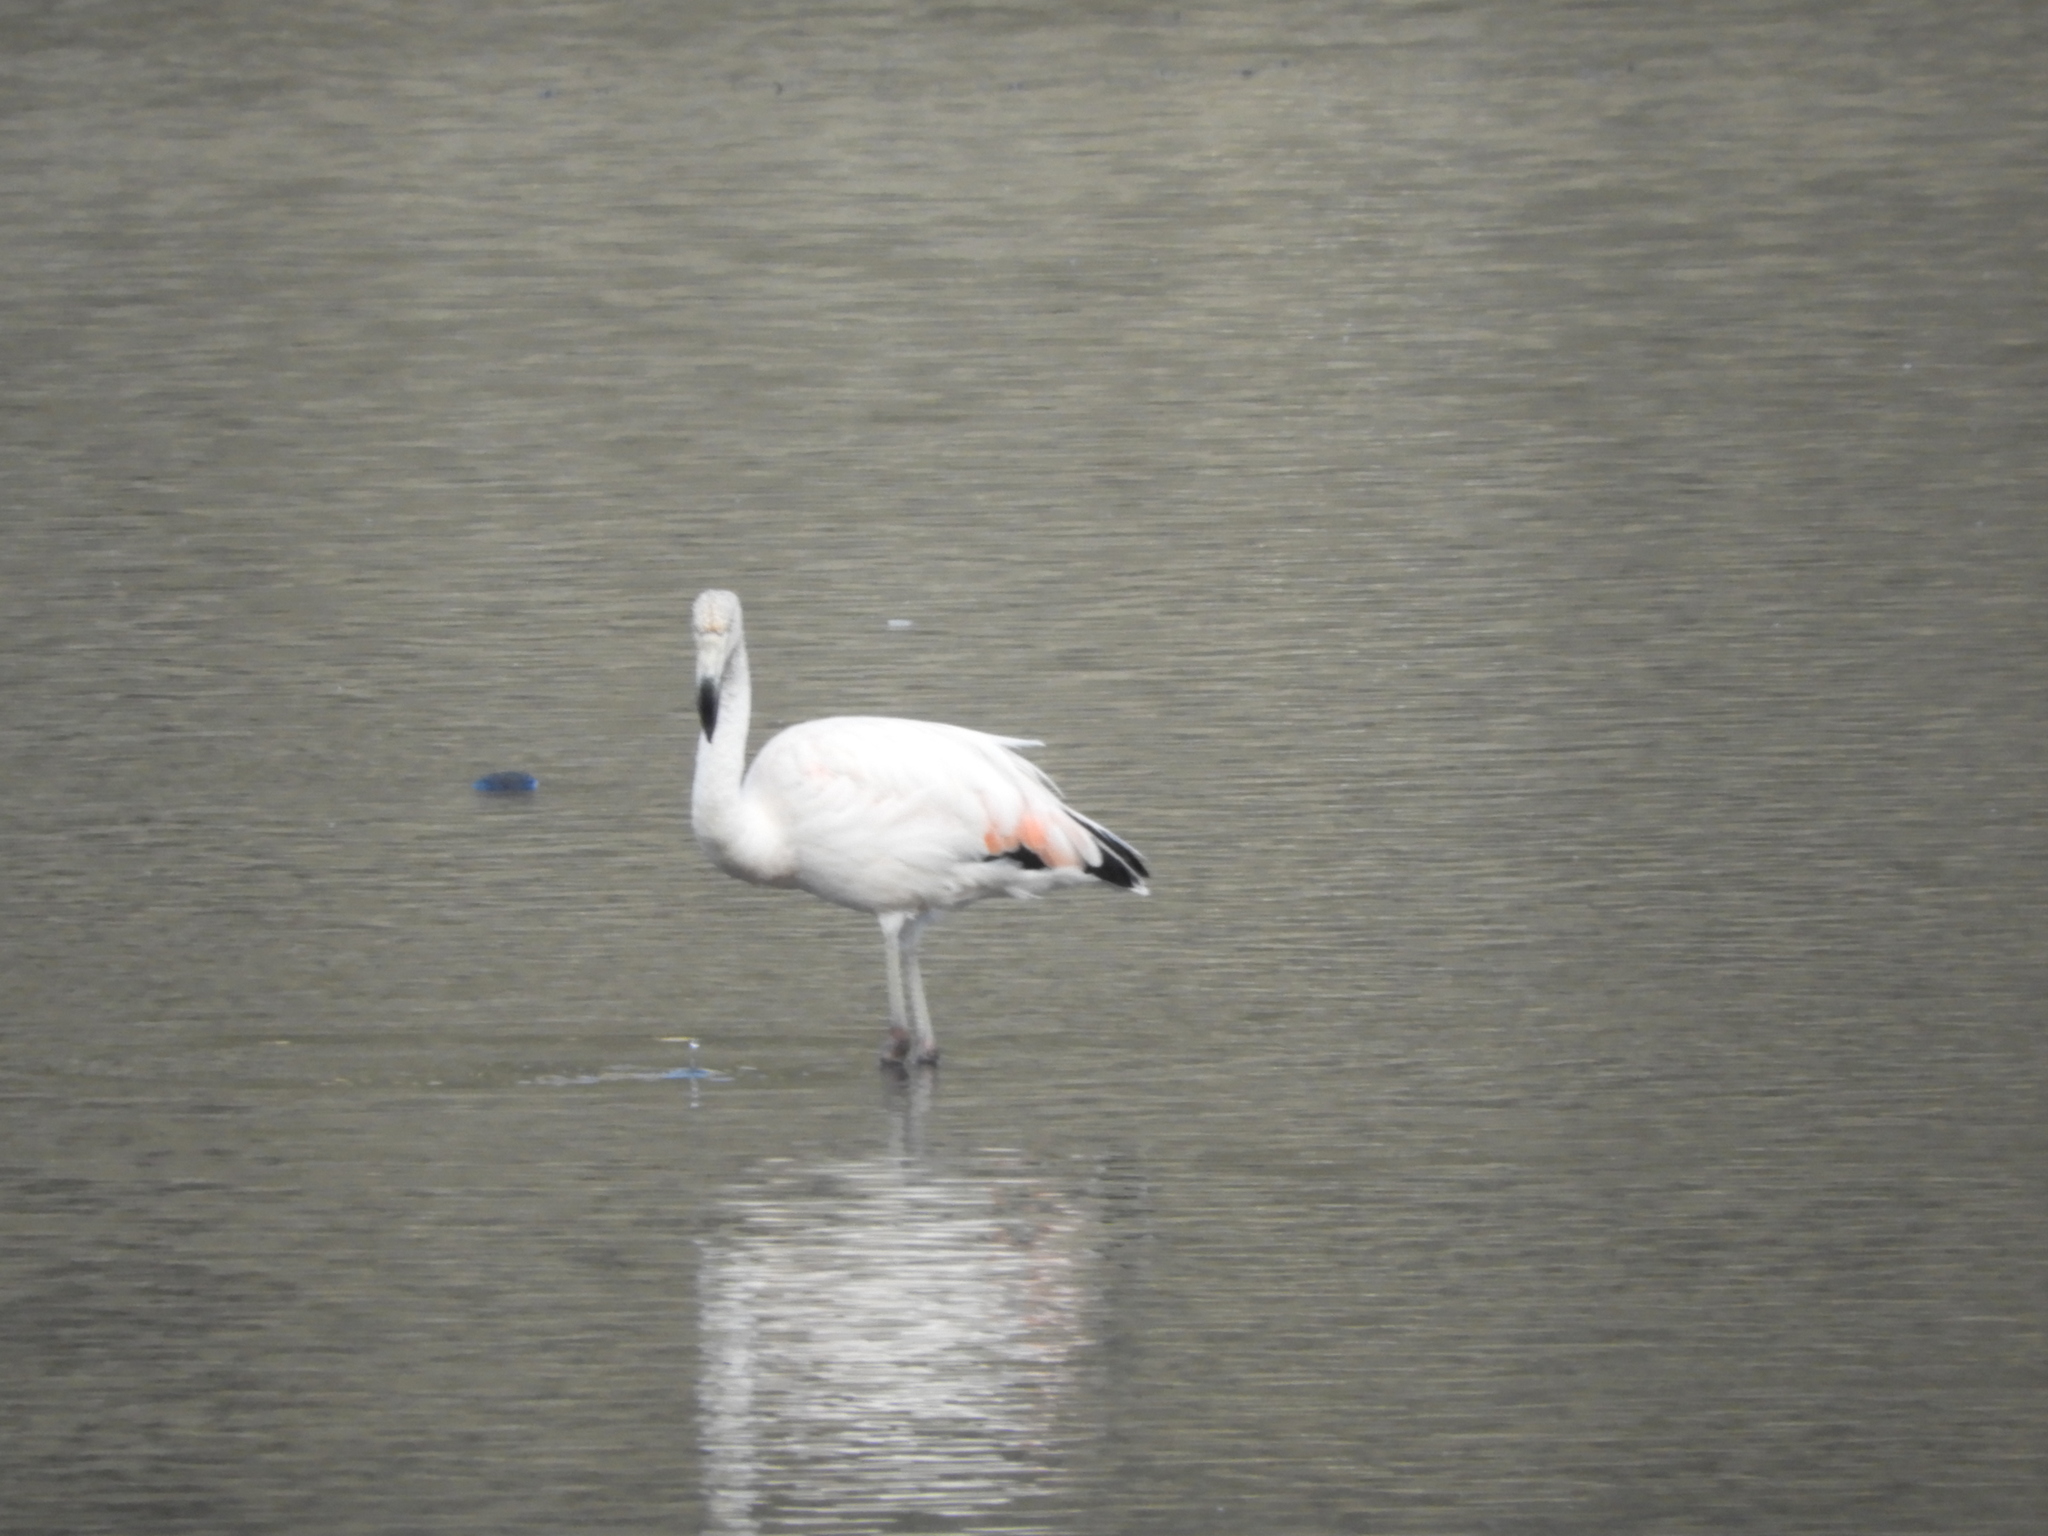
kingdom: Animalia
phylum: Chordata
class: Aves
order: Phoenicopteriformes
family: Phoenicopteridae
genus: Phoenicopterus
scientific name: Phoenicopterus chilensis
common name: Chilean flamingo
